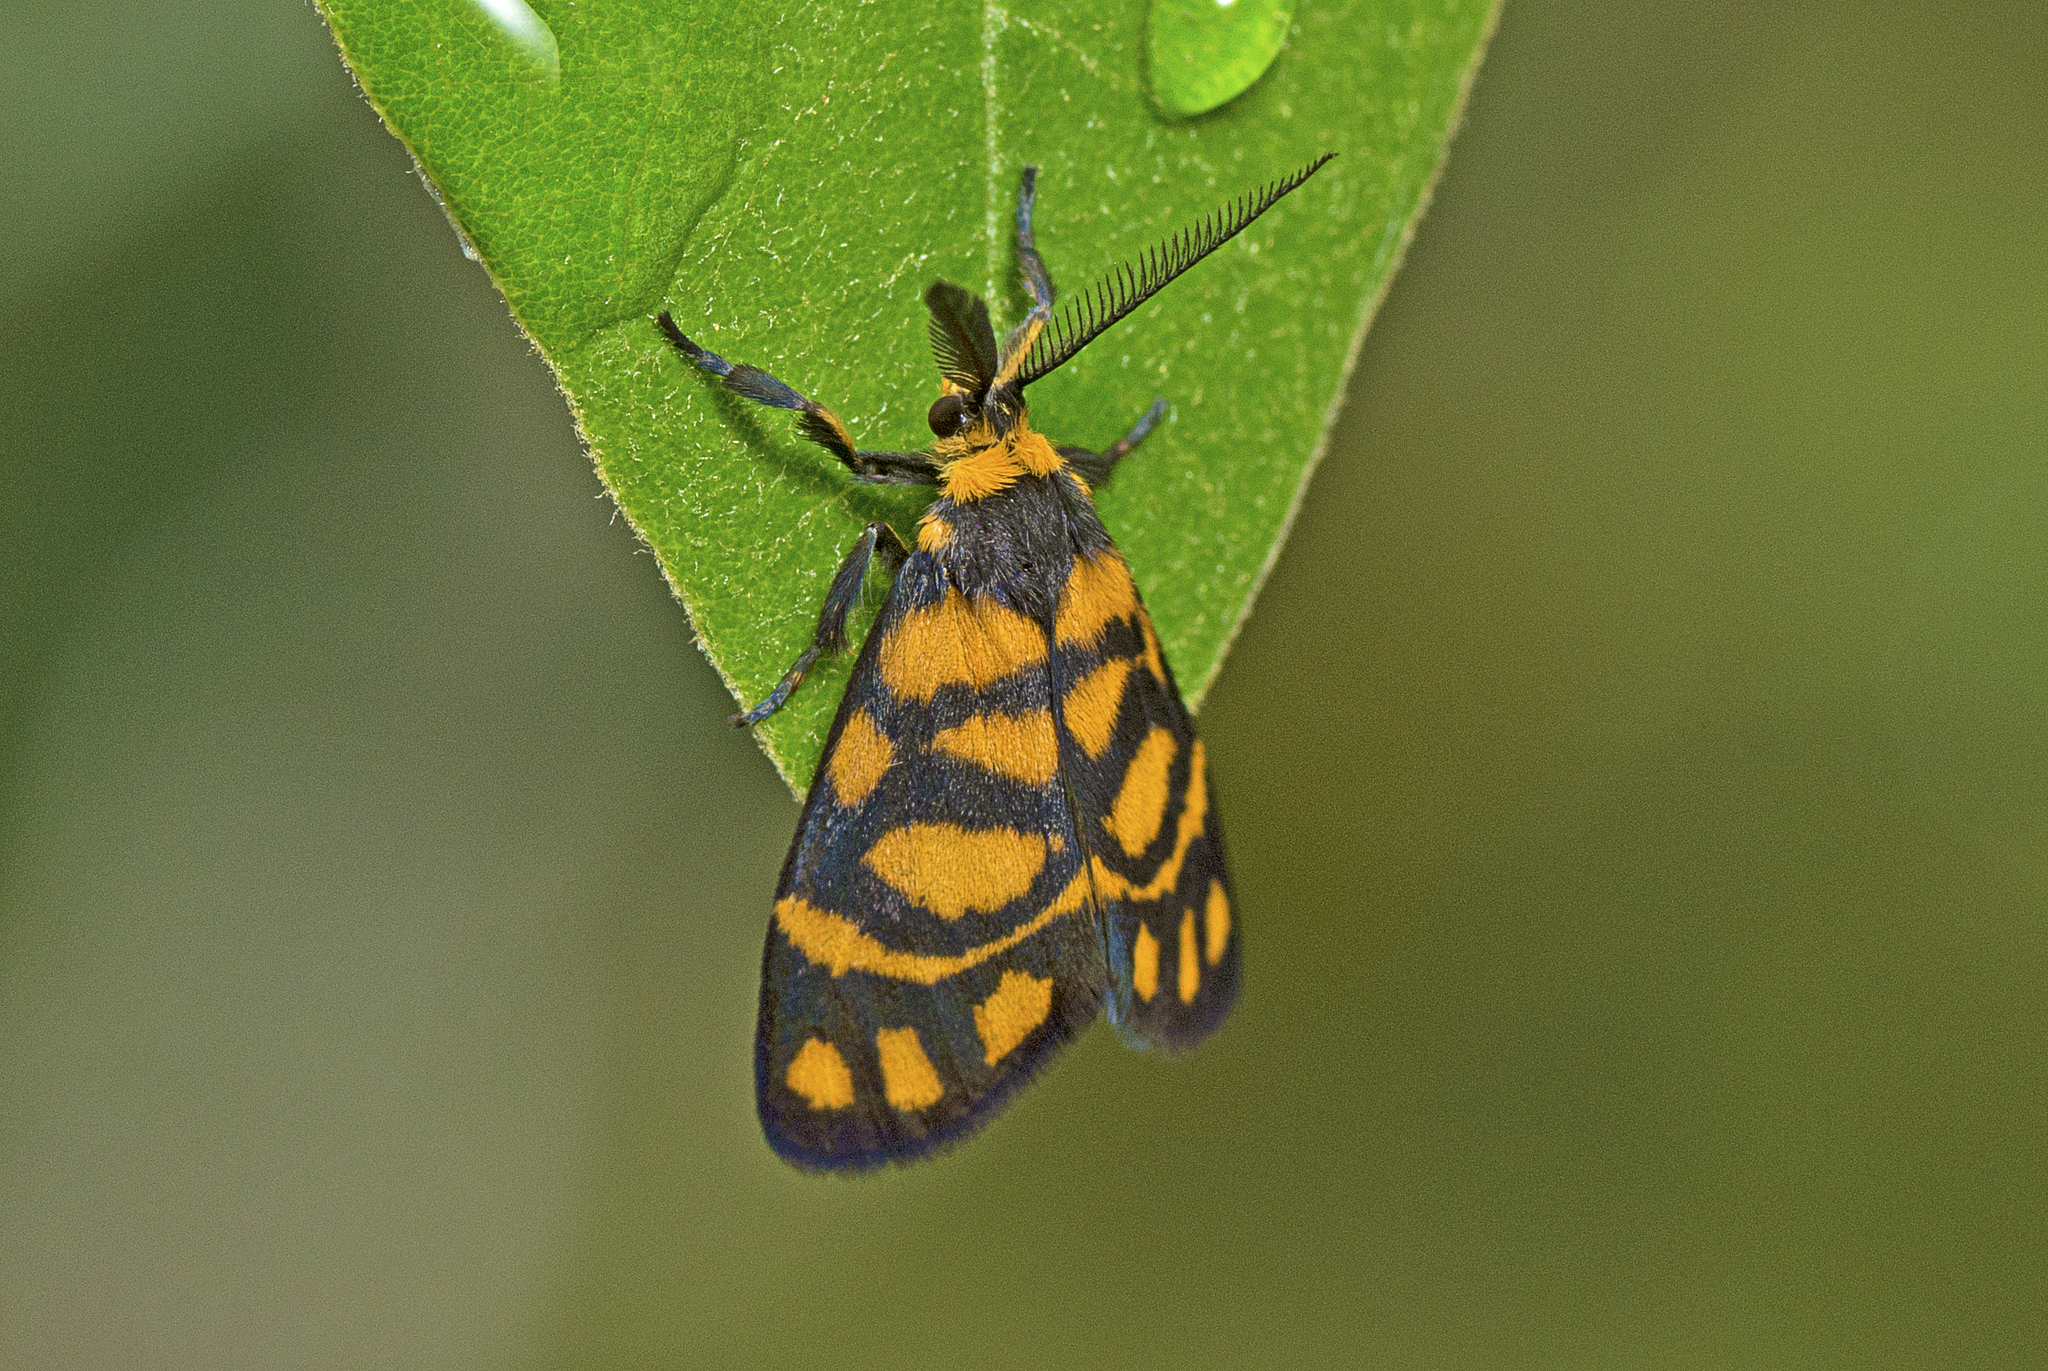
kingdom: Animalia
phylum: Arthropoda
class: Insecta
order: Lepidoptera
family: Erebidae
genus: Asura
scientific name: Asura lydia
